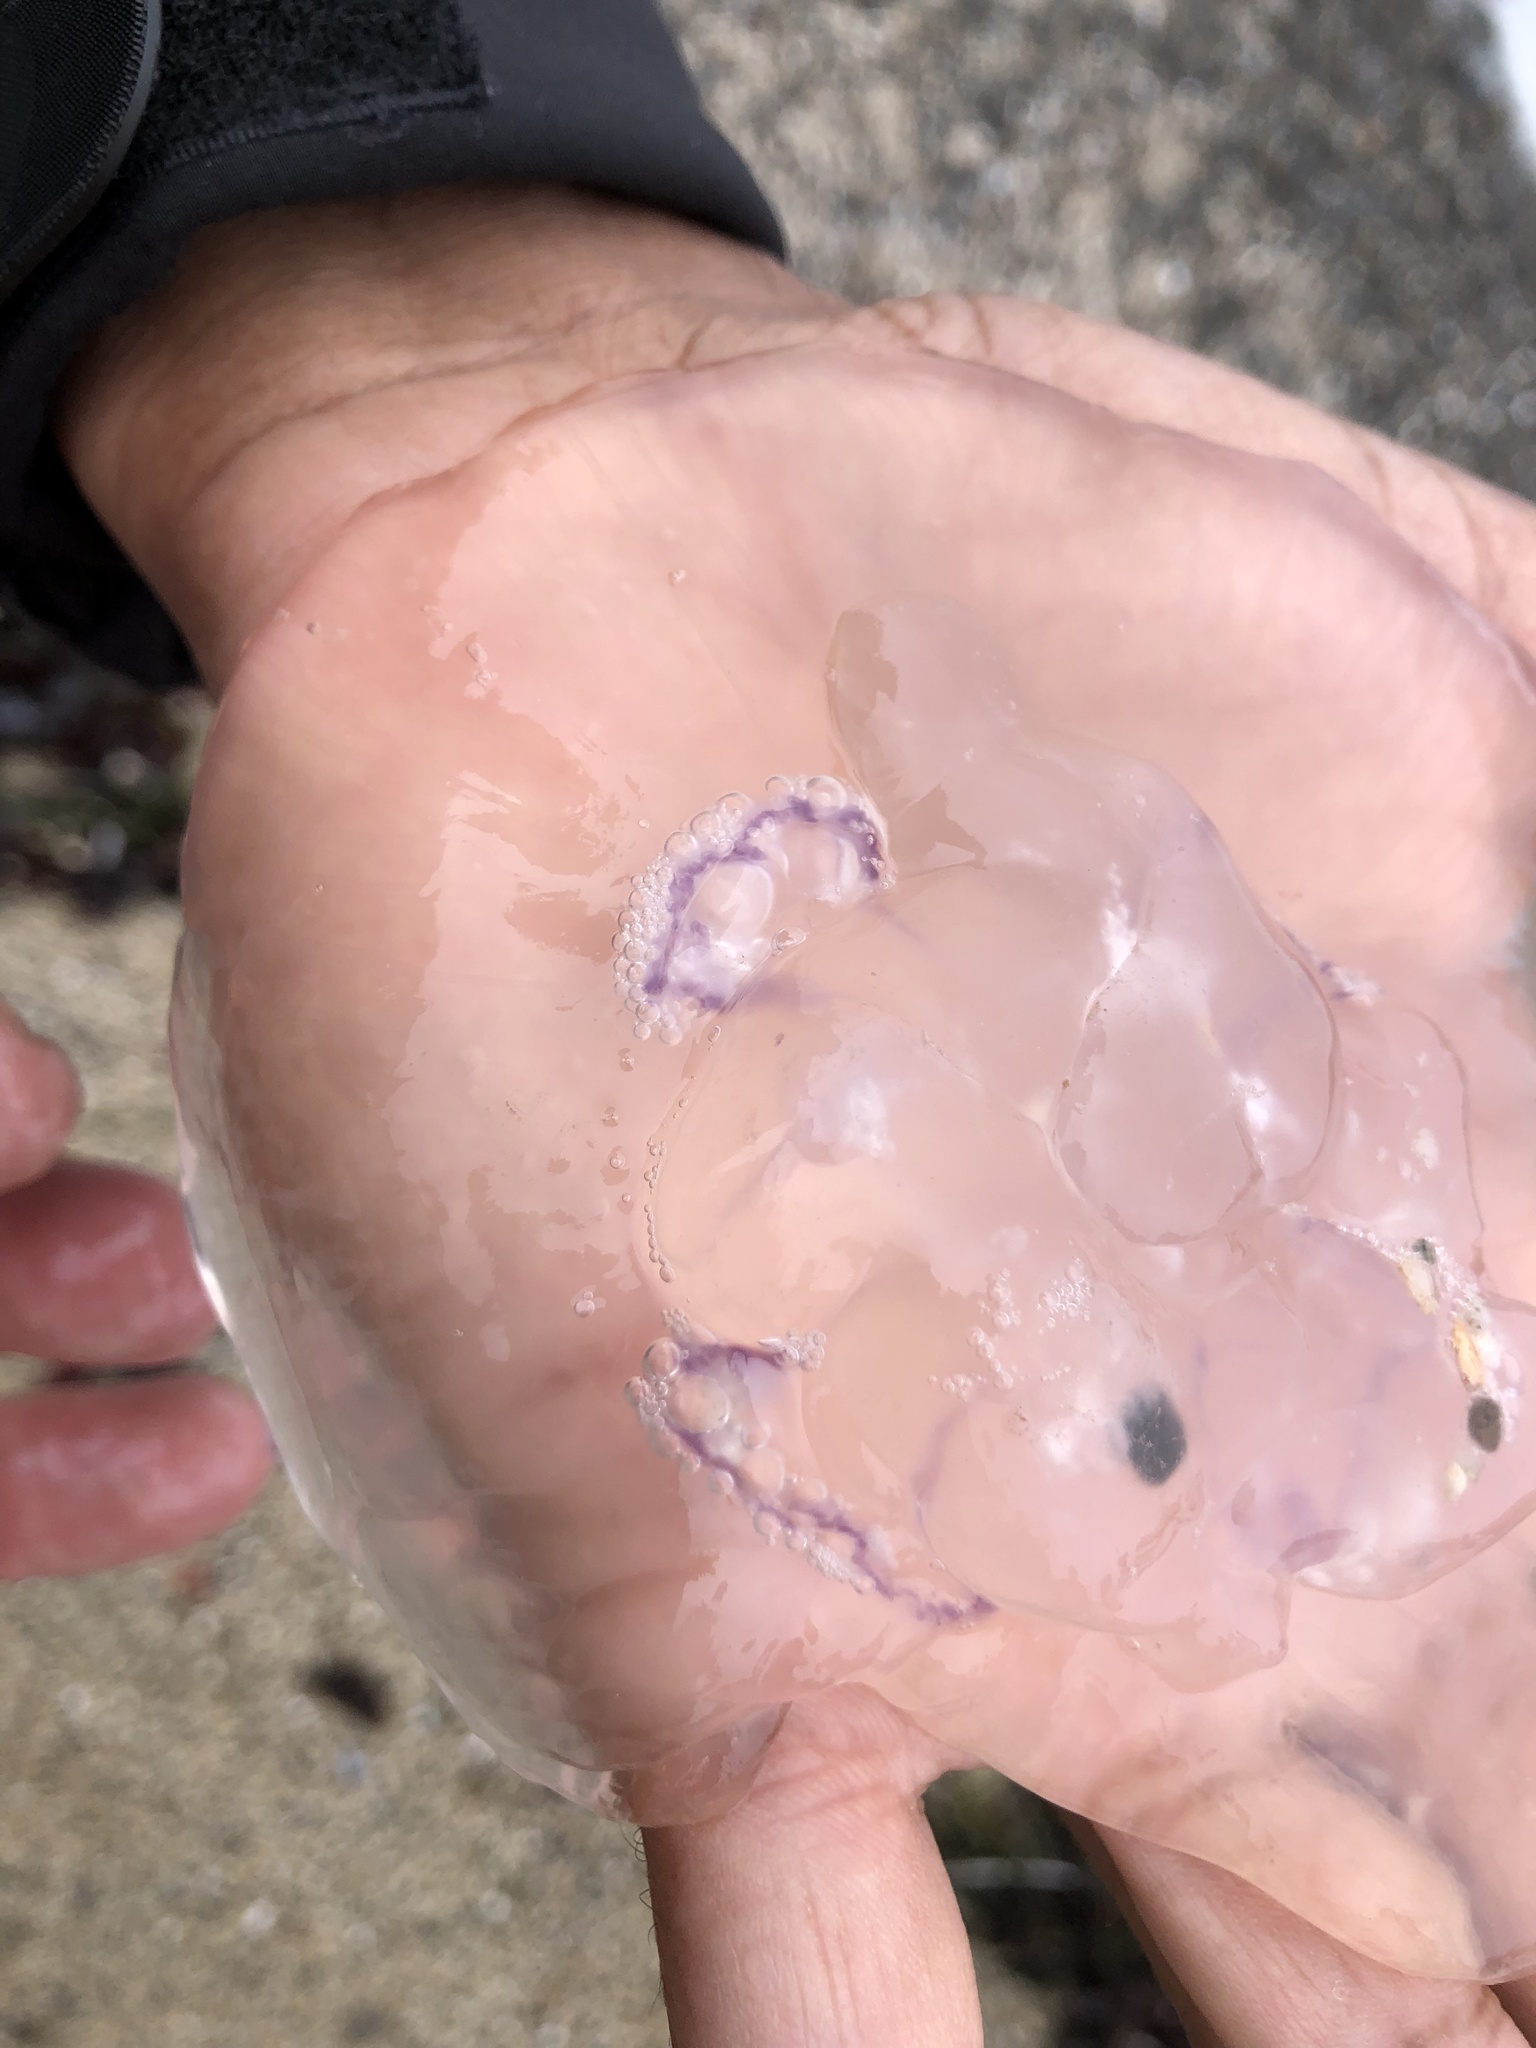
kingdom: Animalia
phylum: Cnidaria
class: Scyphozoa
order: Semaeostomeae
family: Ulmaridae
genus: Aurelia
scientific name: Aurelia labiata
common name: Pacific moon jelly
